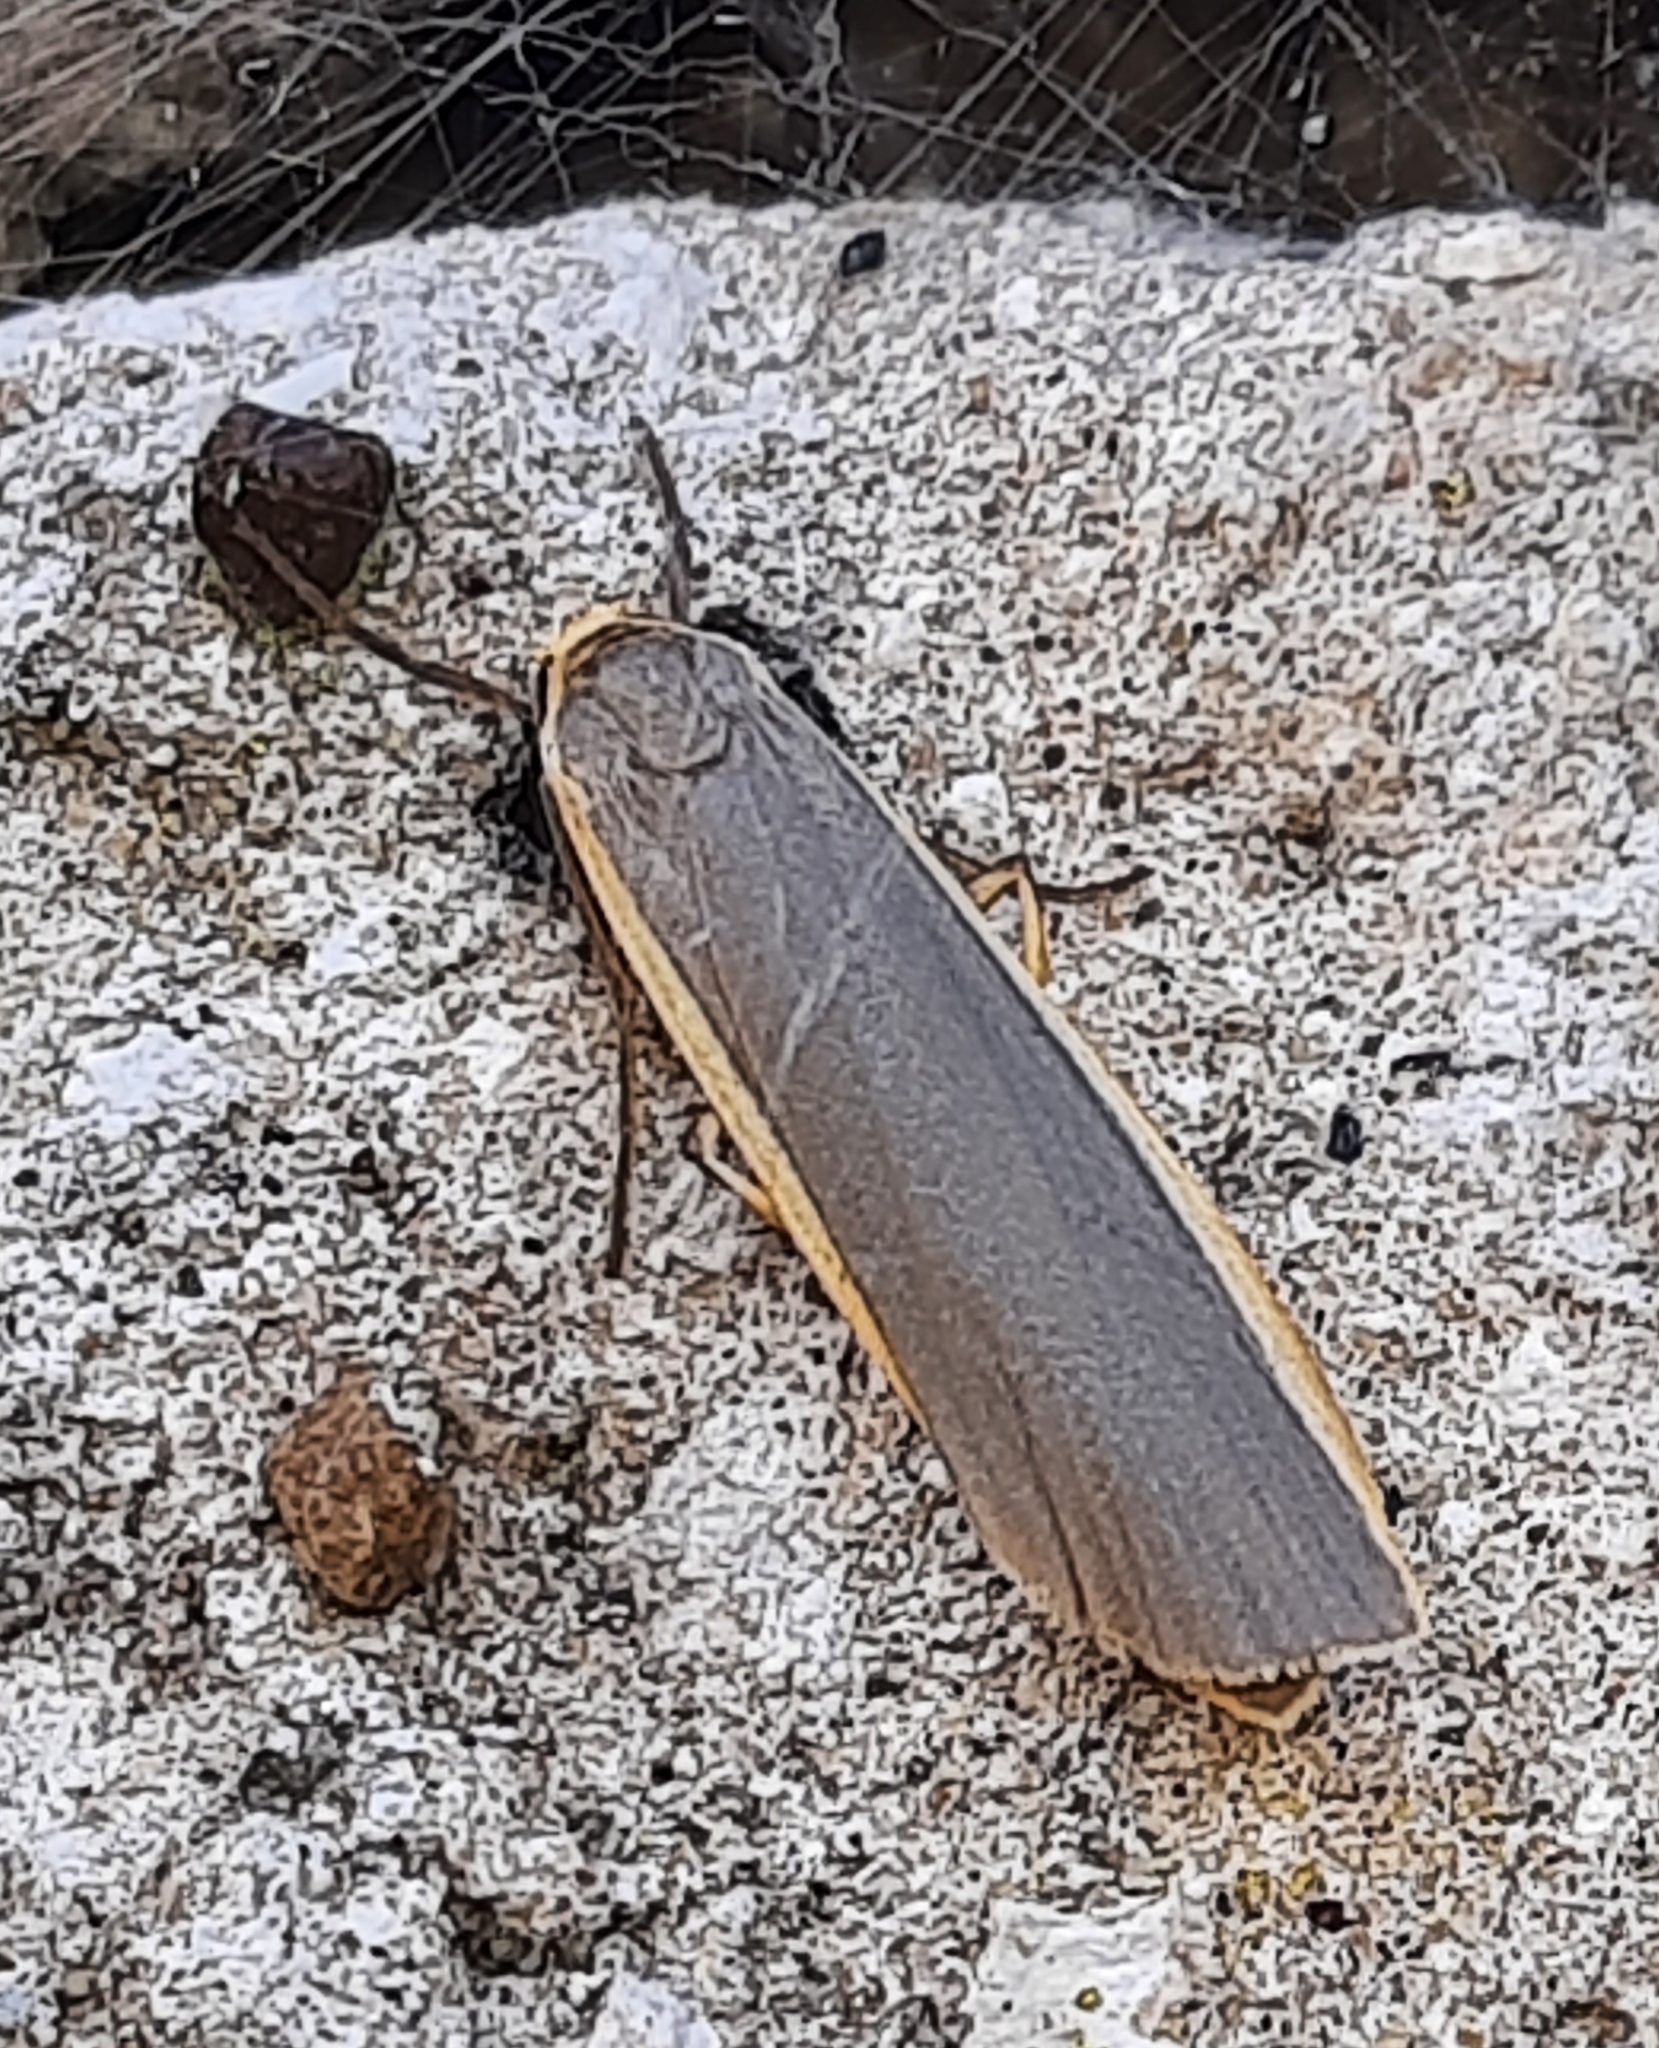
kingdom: Animalia
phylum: Arthropoda
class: Insecta
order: Lepidoptera
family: Erebidae
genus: Nyea
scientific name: Nyea lurideola
